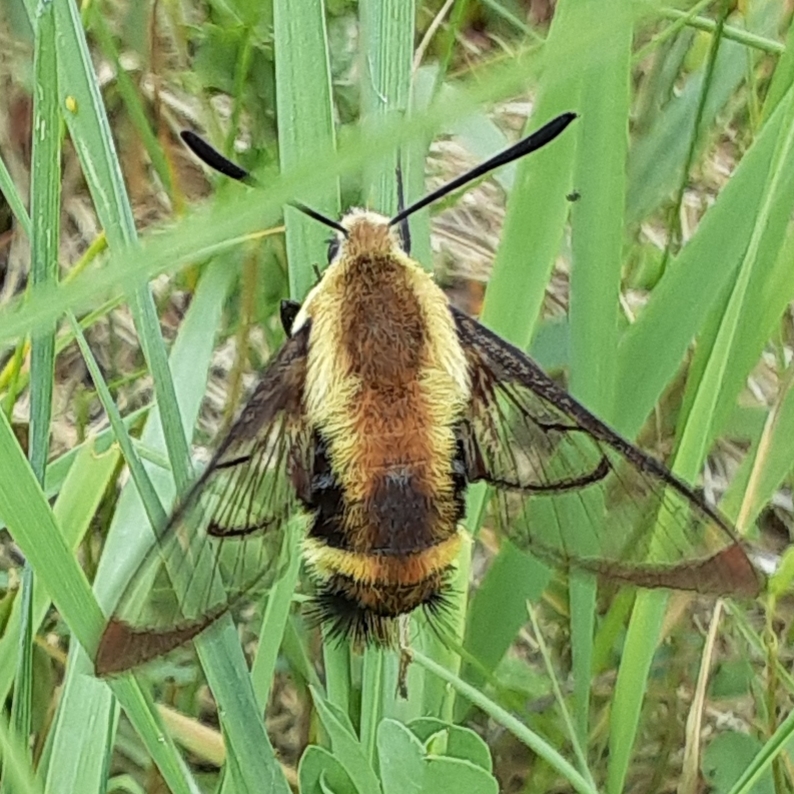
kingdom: Animalia
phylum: Arthropoda
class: Insecta
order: Lepidoptera
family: Sphingidae
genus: Hemaris
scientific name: Hemaris diffinis
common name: Bumblebee moth
